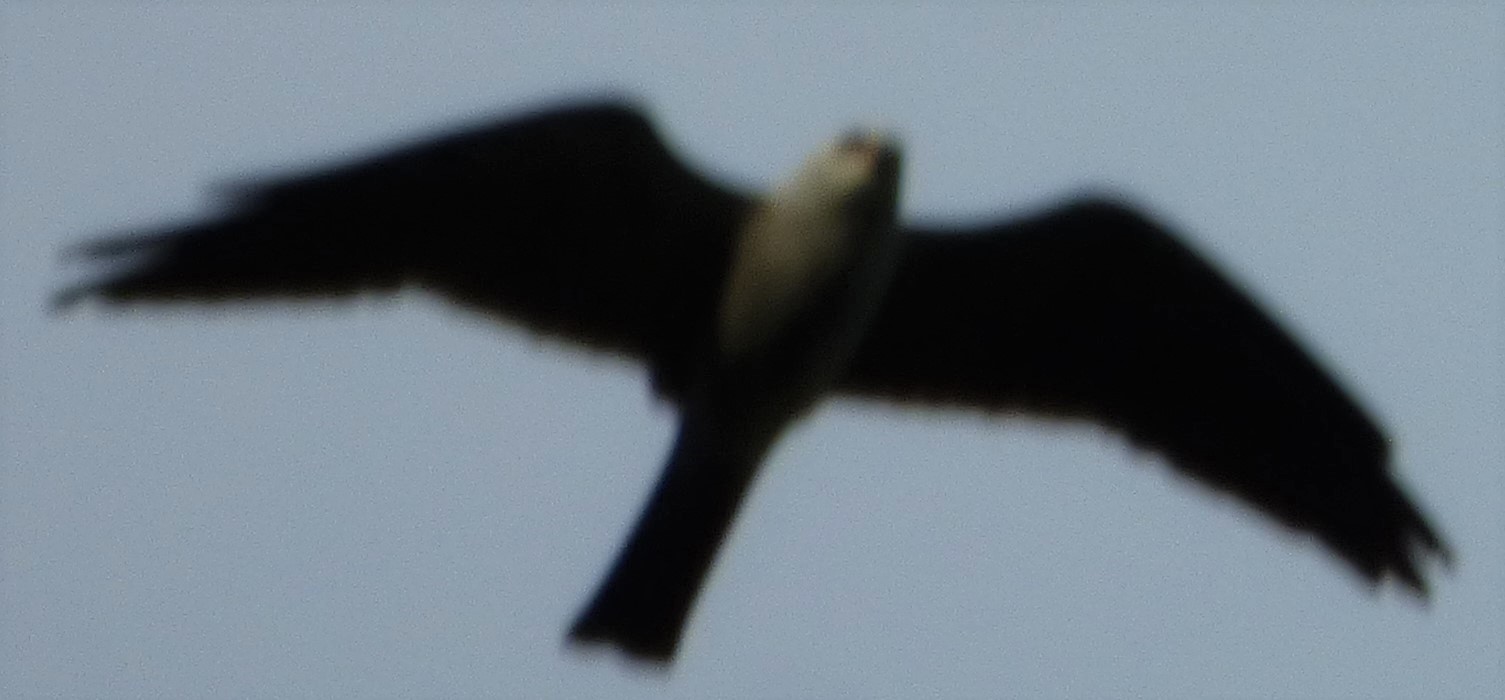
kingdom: Animalia
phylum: Chordata
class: Aves
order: Accipitriformes
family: Accipitridae
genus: Ictinia
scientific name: Ictinia mississippiensis
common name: Mississippi kite
